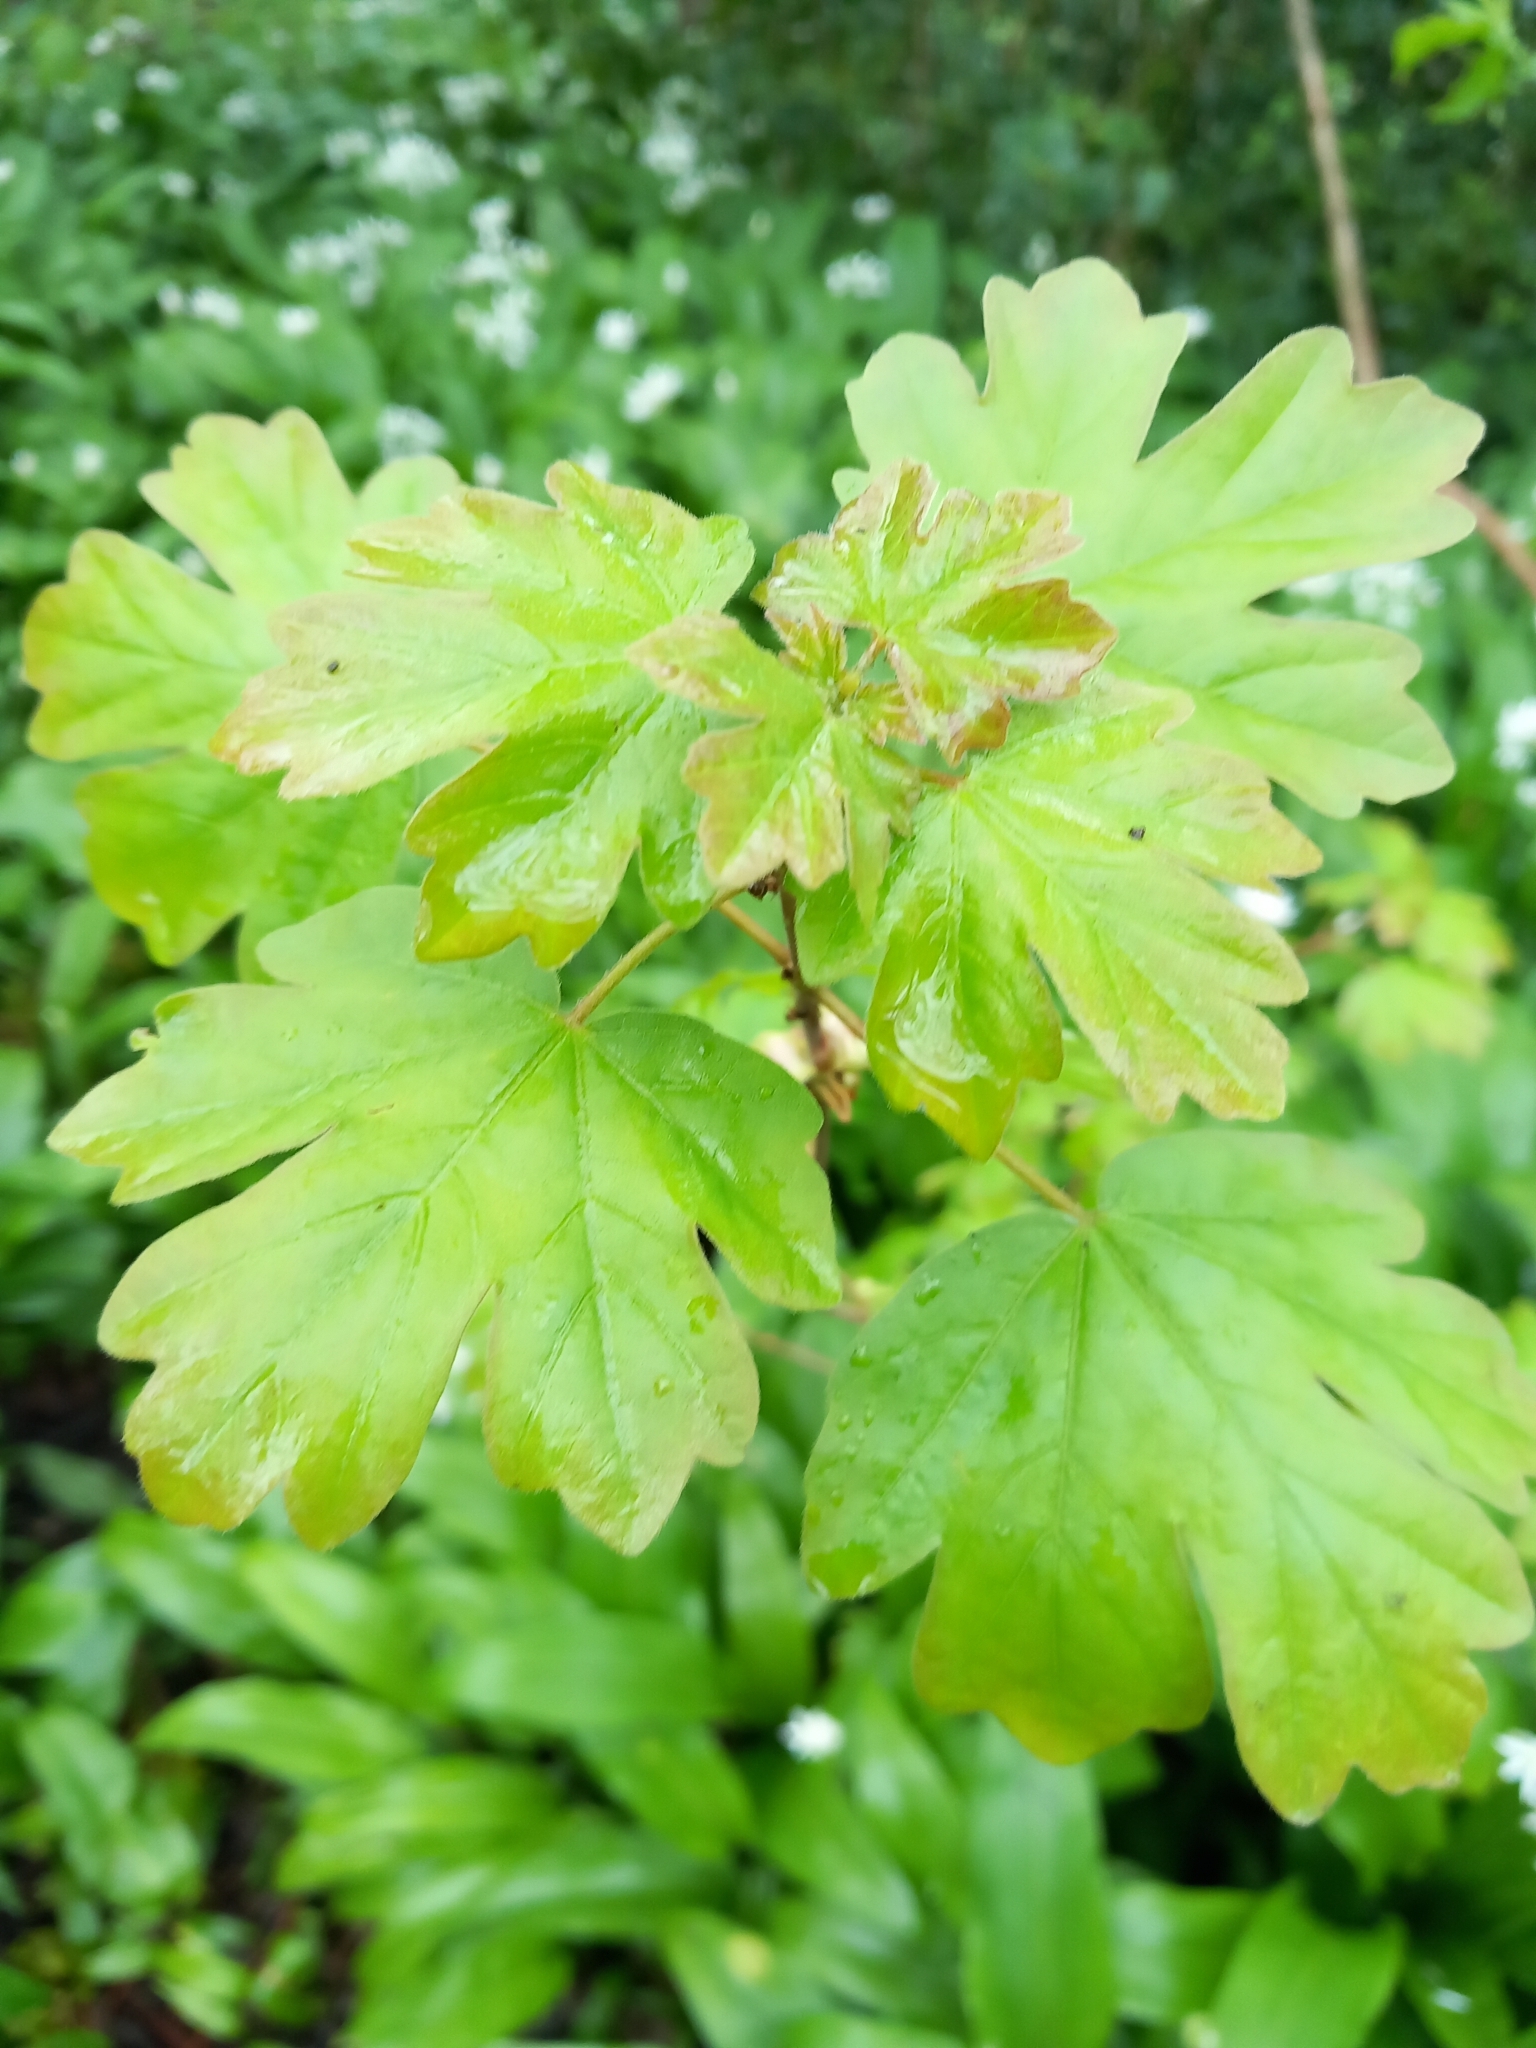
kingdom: Plantae
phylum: Tracheophyta
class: Magnoliopsida
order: Sapindales
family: Sapindaceae
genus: Acer
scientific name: Acer campestre
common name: Field maple
